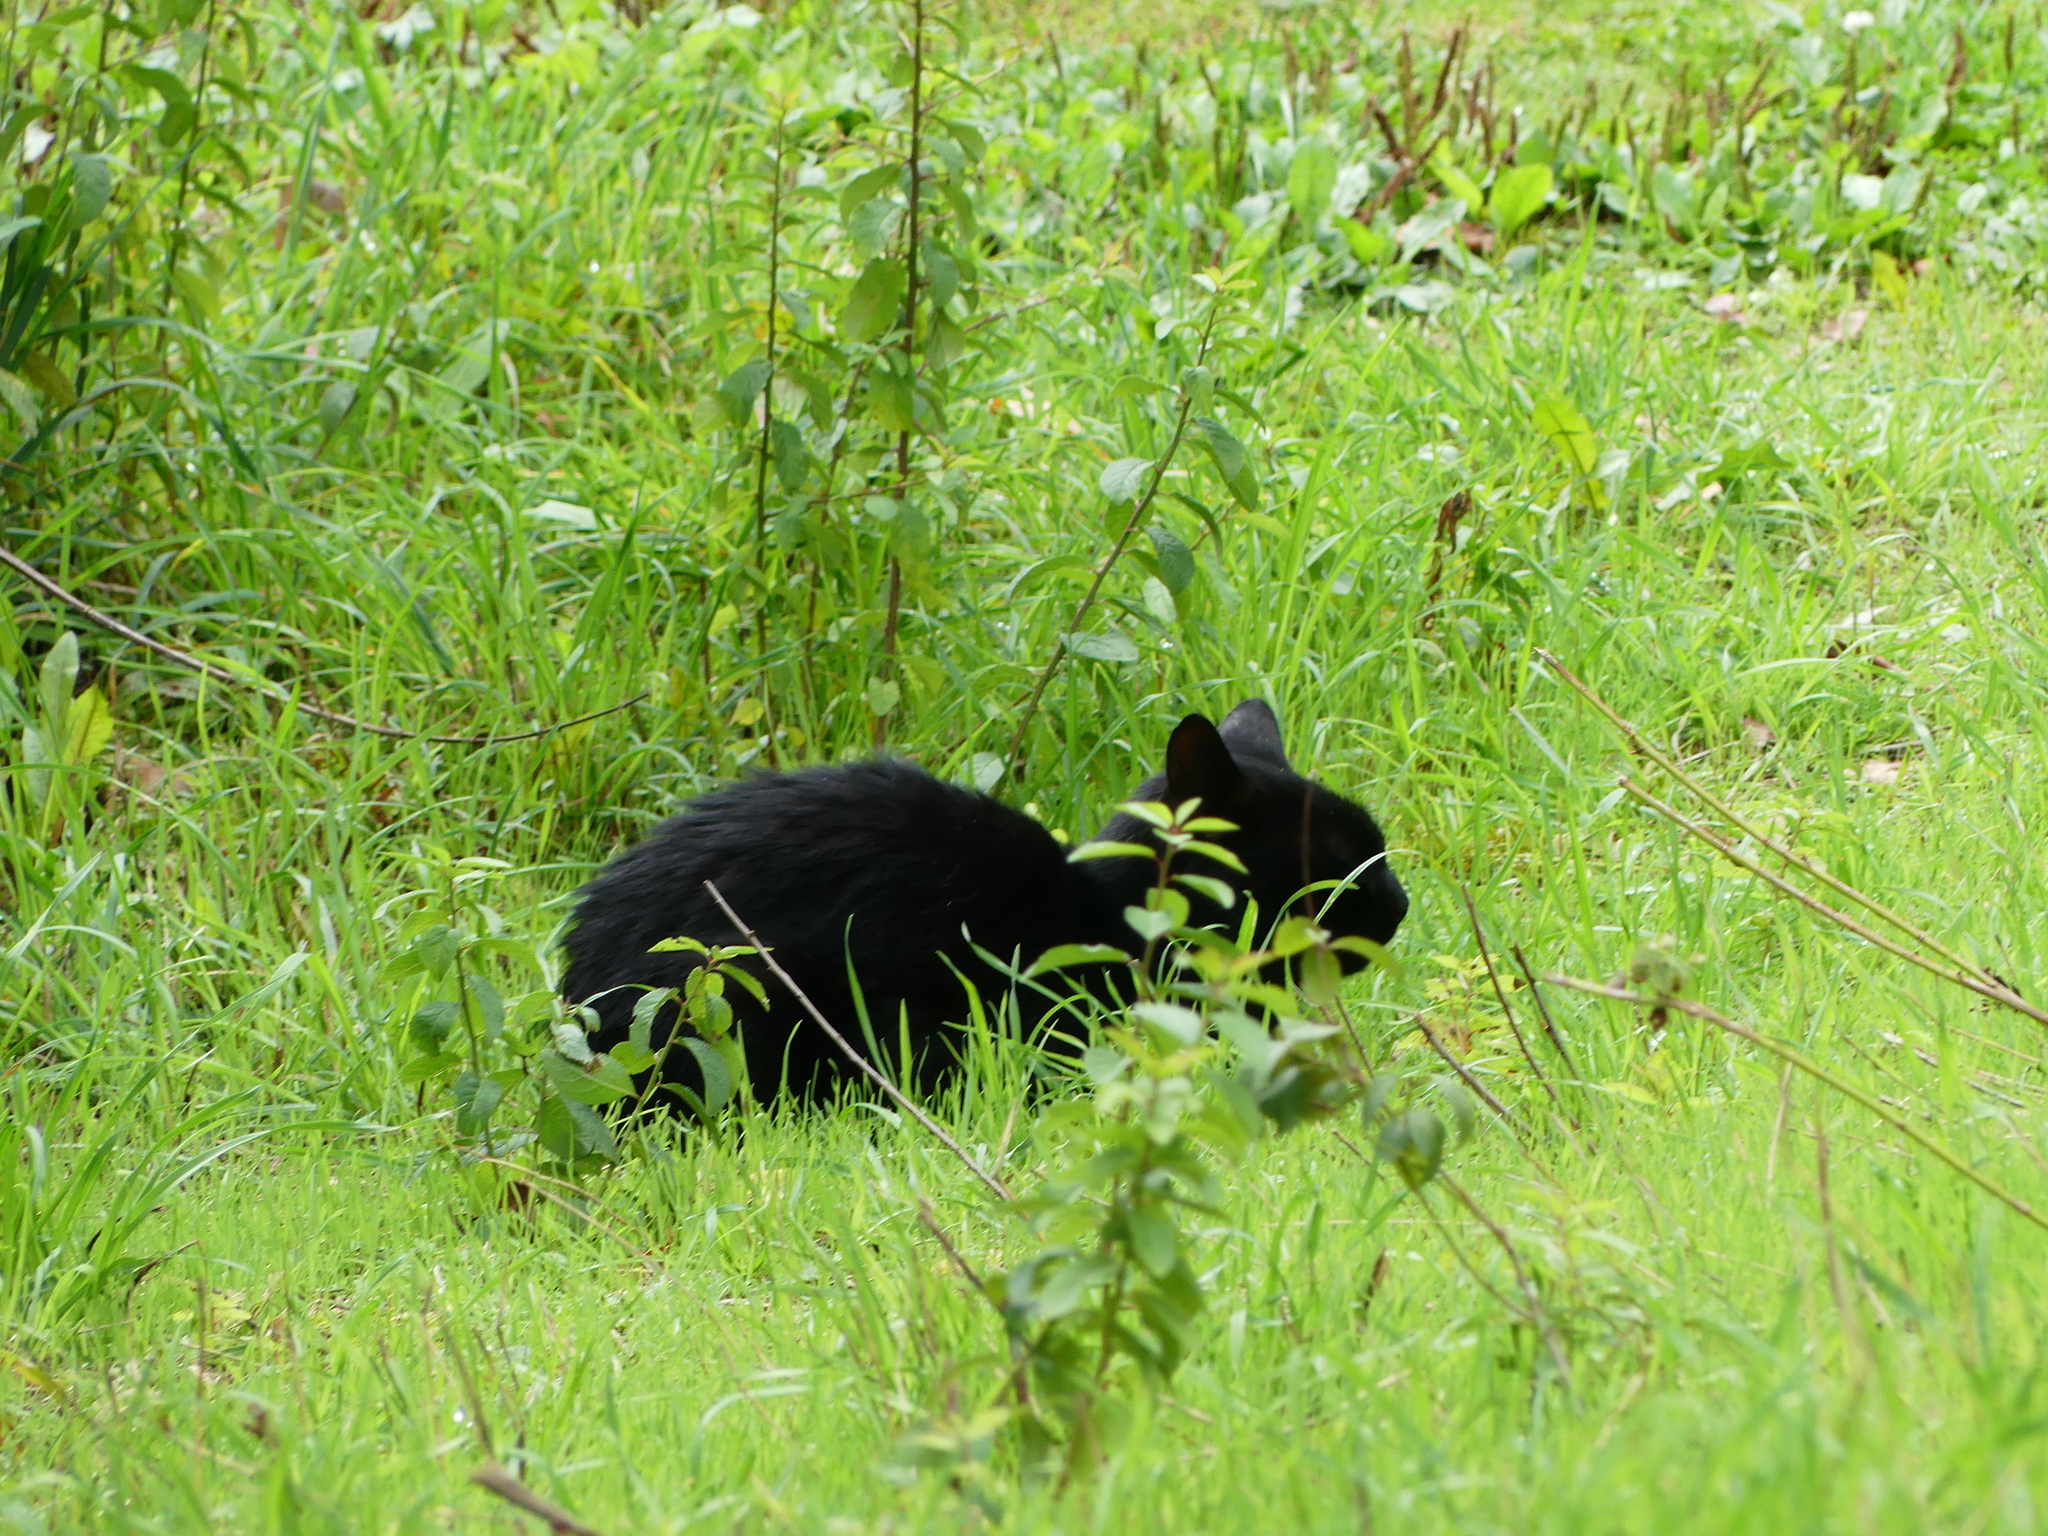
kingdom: Animalia
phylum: Chordata
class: Mammalia
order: Carnivora
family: Felidae
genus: Felis
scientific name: Felis catus
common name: Domestic cat
